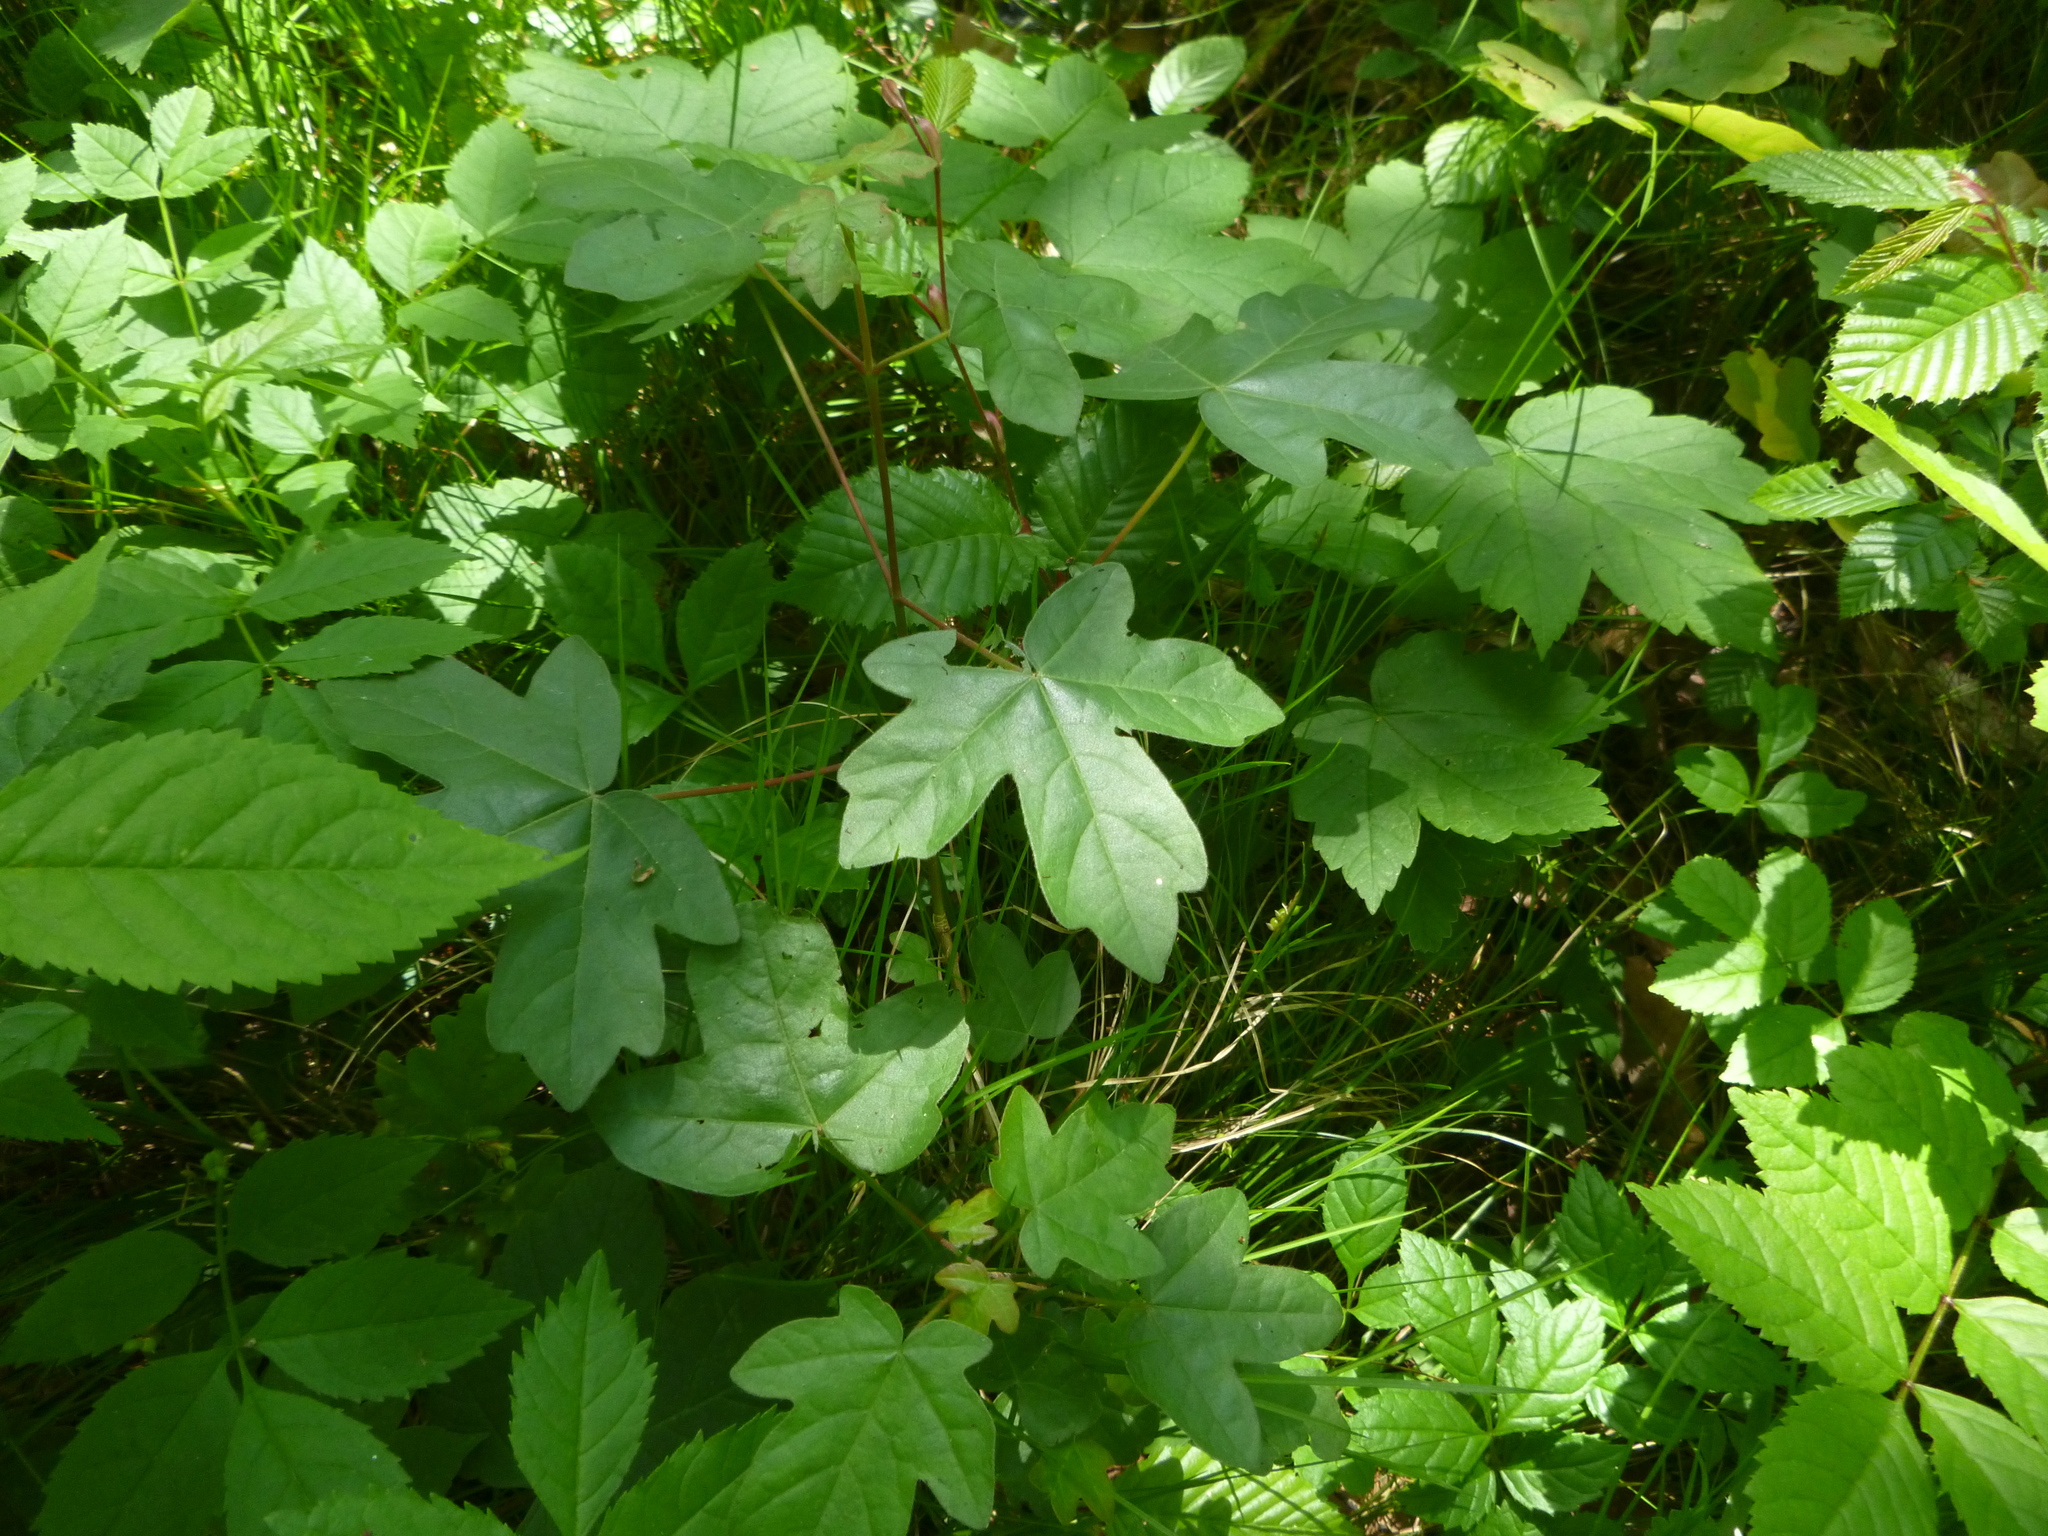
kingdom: Plantae
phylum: Tracheophyta
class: Magnoliopsida
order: Sapindales
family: Sapindaceae
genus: Acer
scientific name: Acer campestre
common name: Field maple
